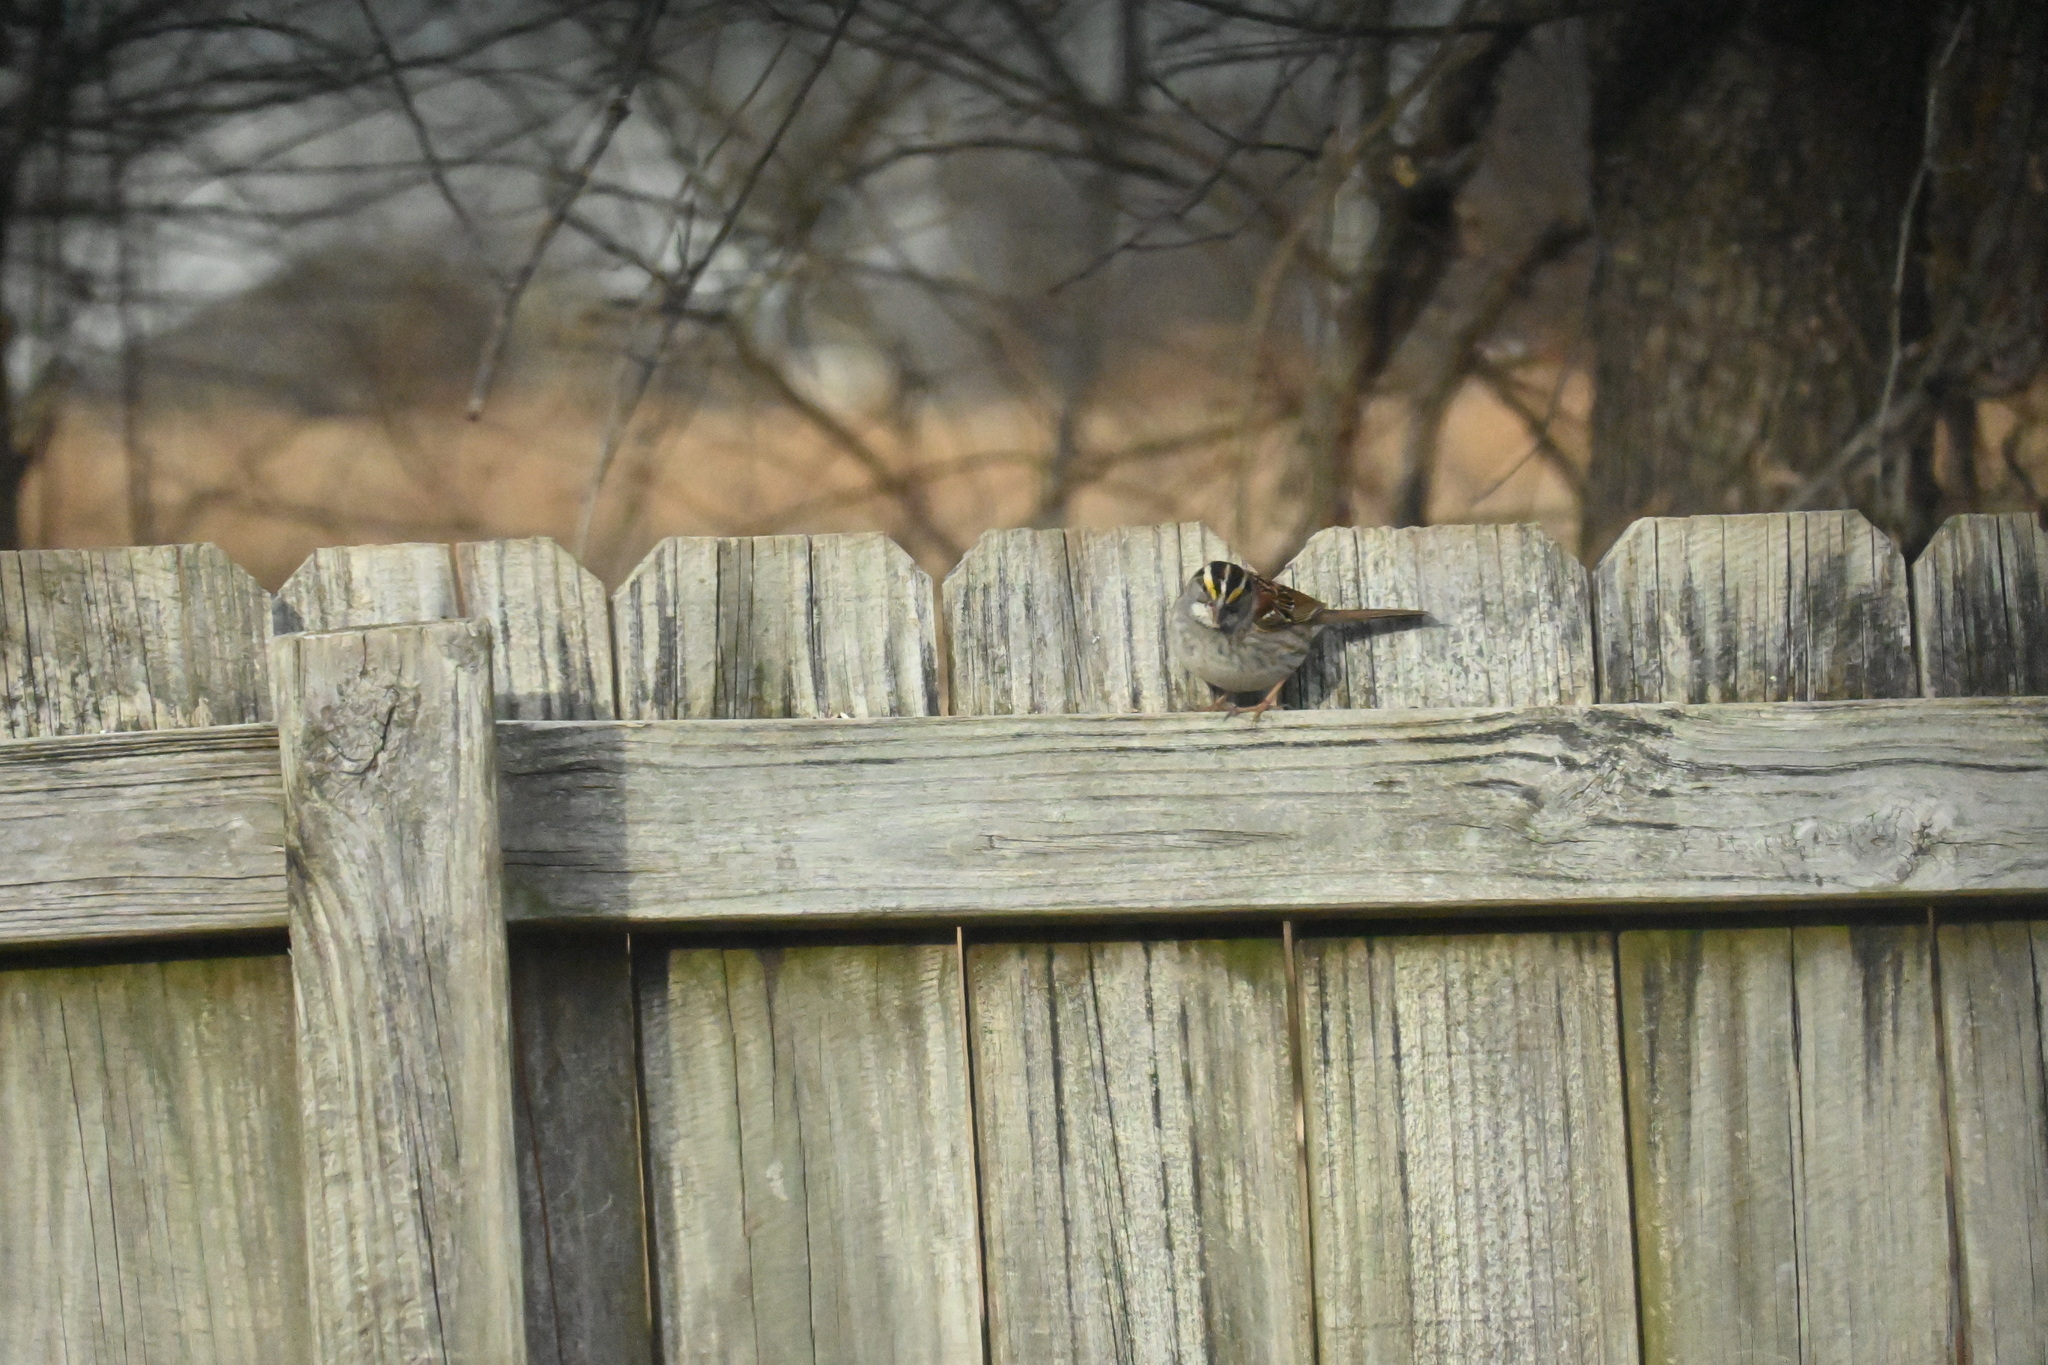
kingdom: Animalia
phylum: Chordata
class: Aves
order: Passeriformes
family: Passerellidae
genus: Zonotrichia
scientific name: Zonotrichia albicollis
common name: White-throated sparrow
